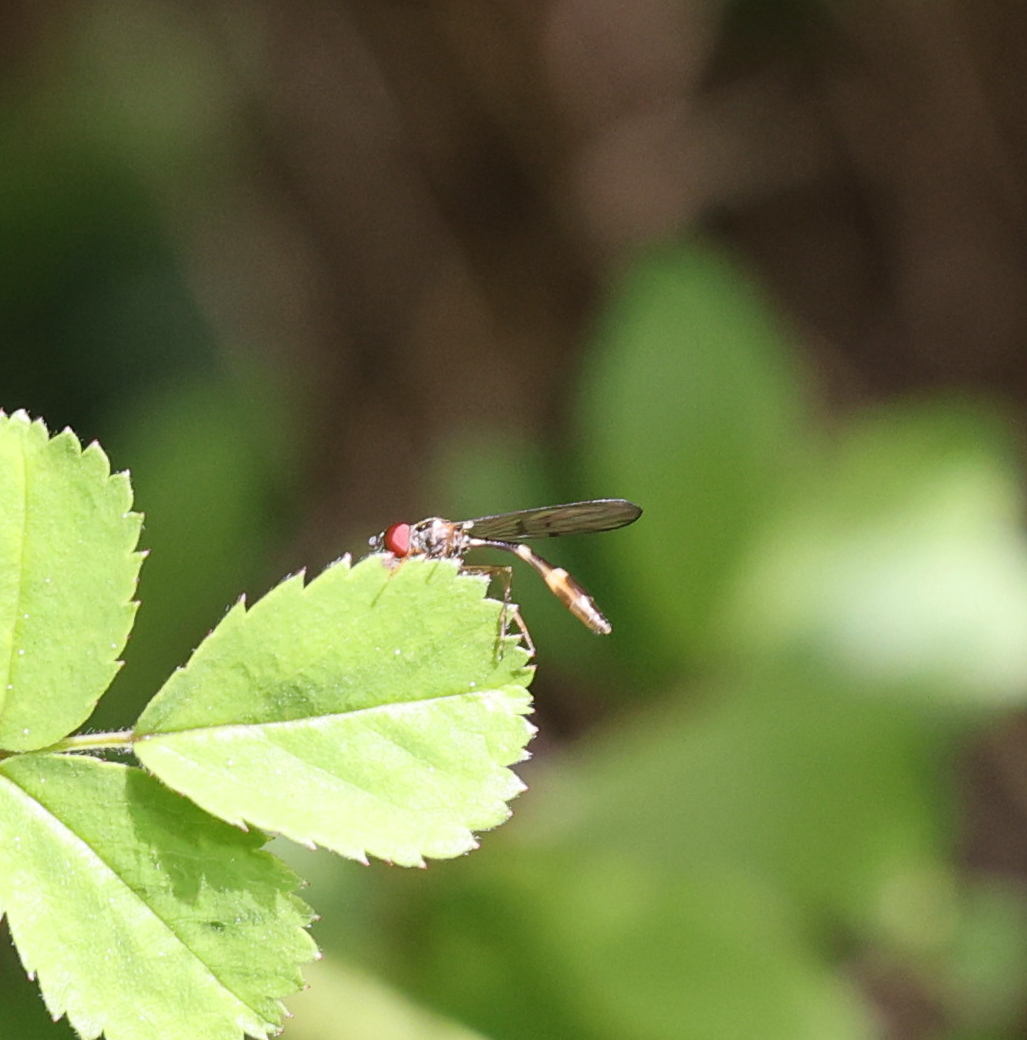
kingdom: Animalia
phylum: Arthropoda
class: Insecta
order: Diptera
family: Syrphidae
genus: Baccha
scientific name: Baccha elongata
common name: Common dainty
